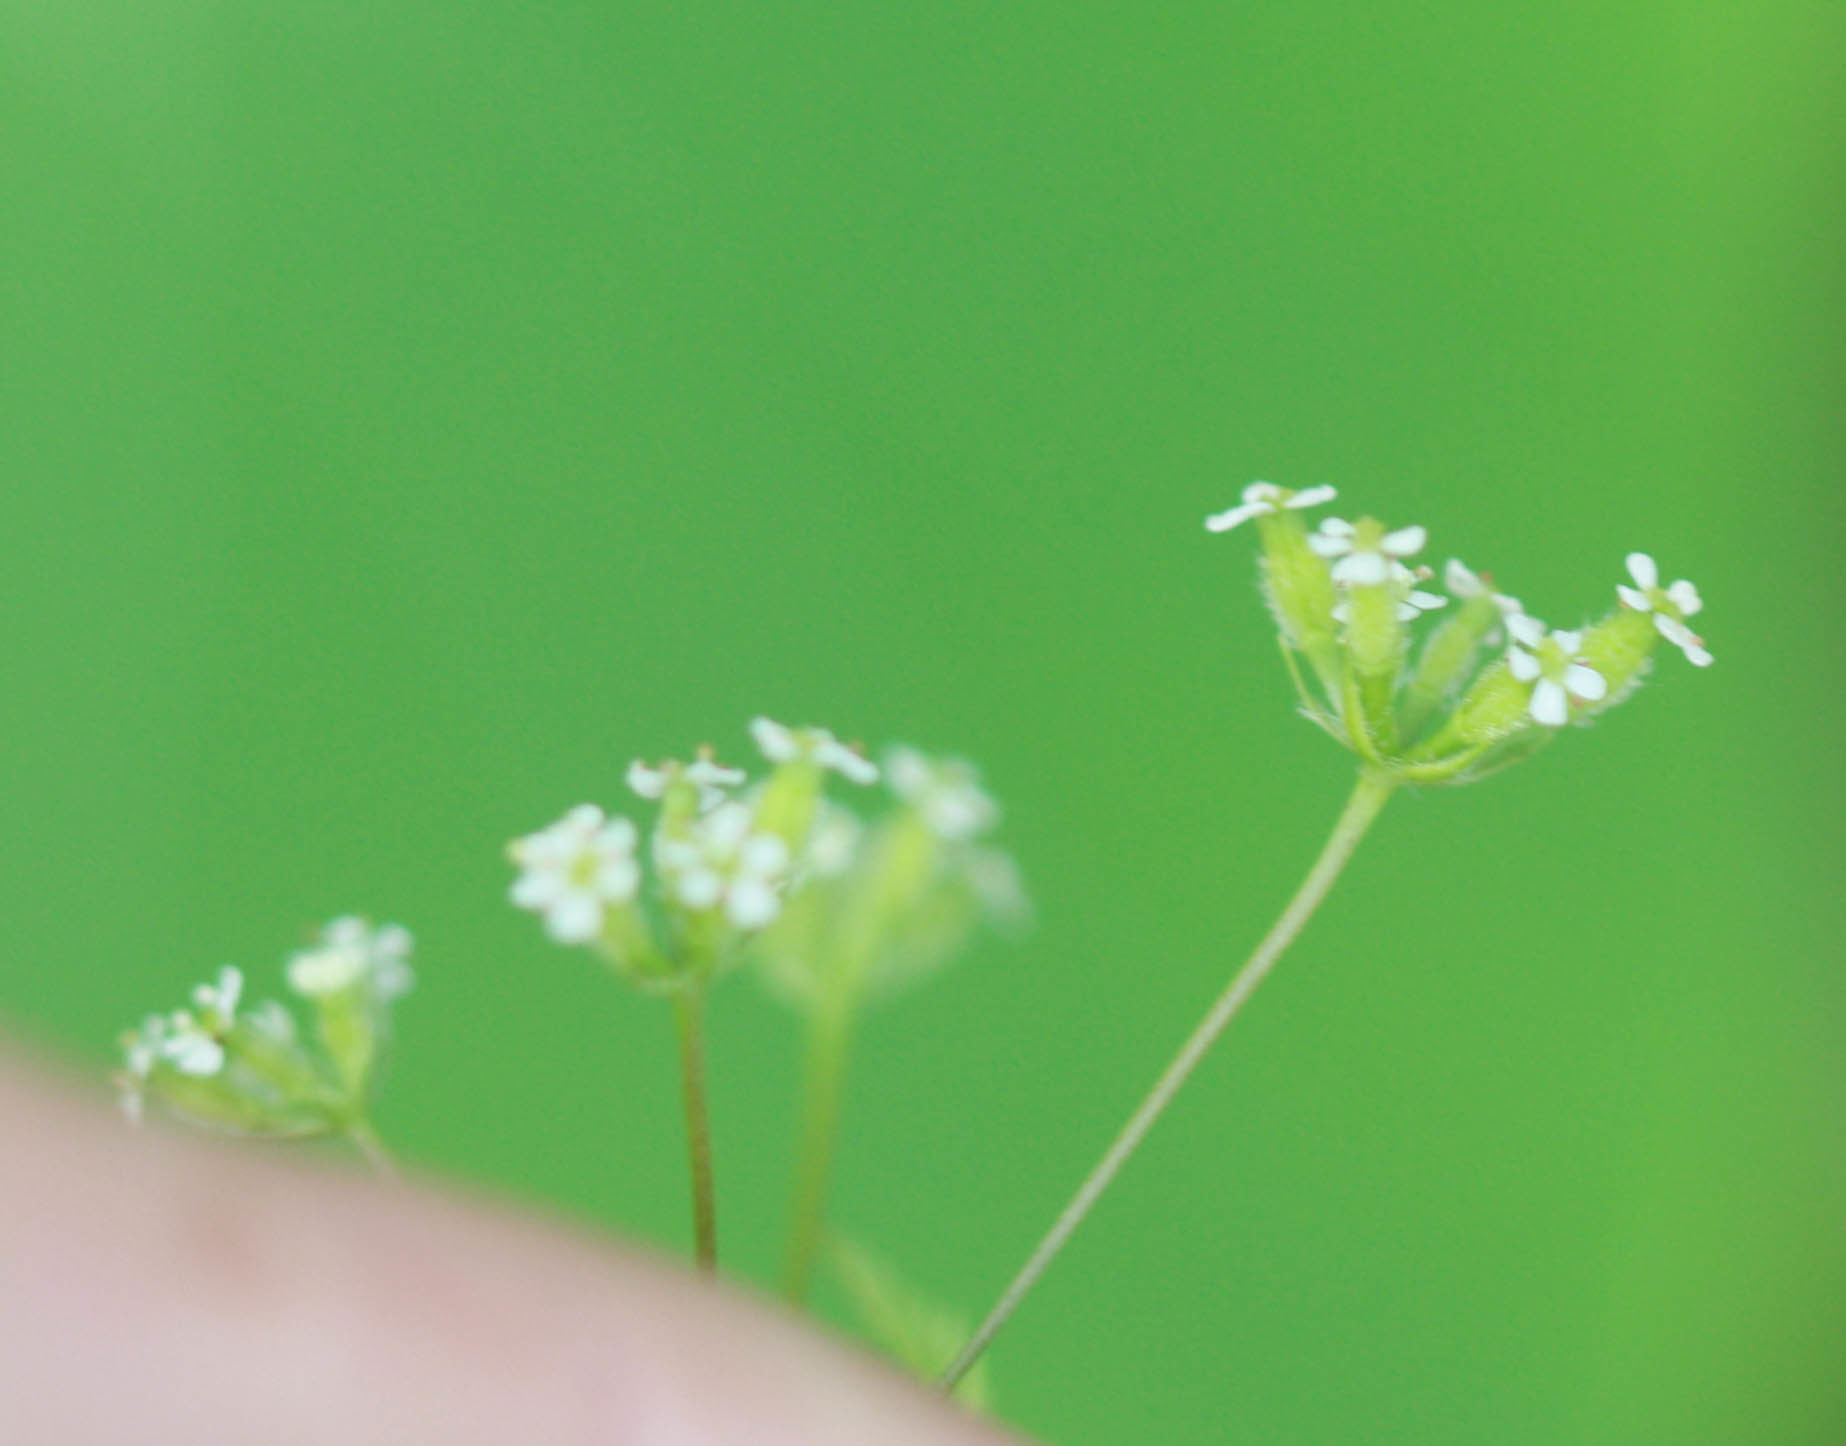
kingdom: Plantae
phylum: Tracheophyta
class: Magnoliopsida
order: Apiales
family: Apiaceae
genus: Anthriscus
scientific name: Anthriscus caucalis
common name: Bur chervil
